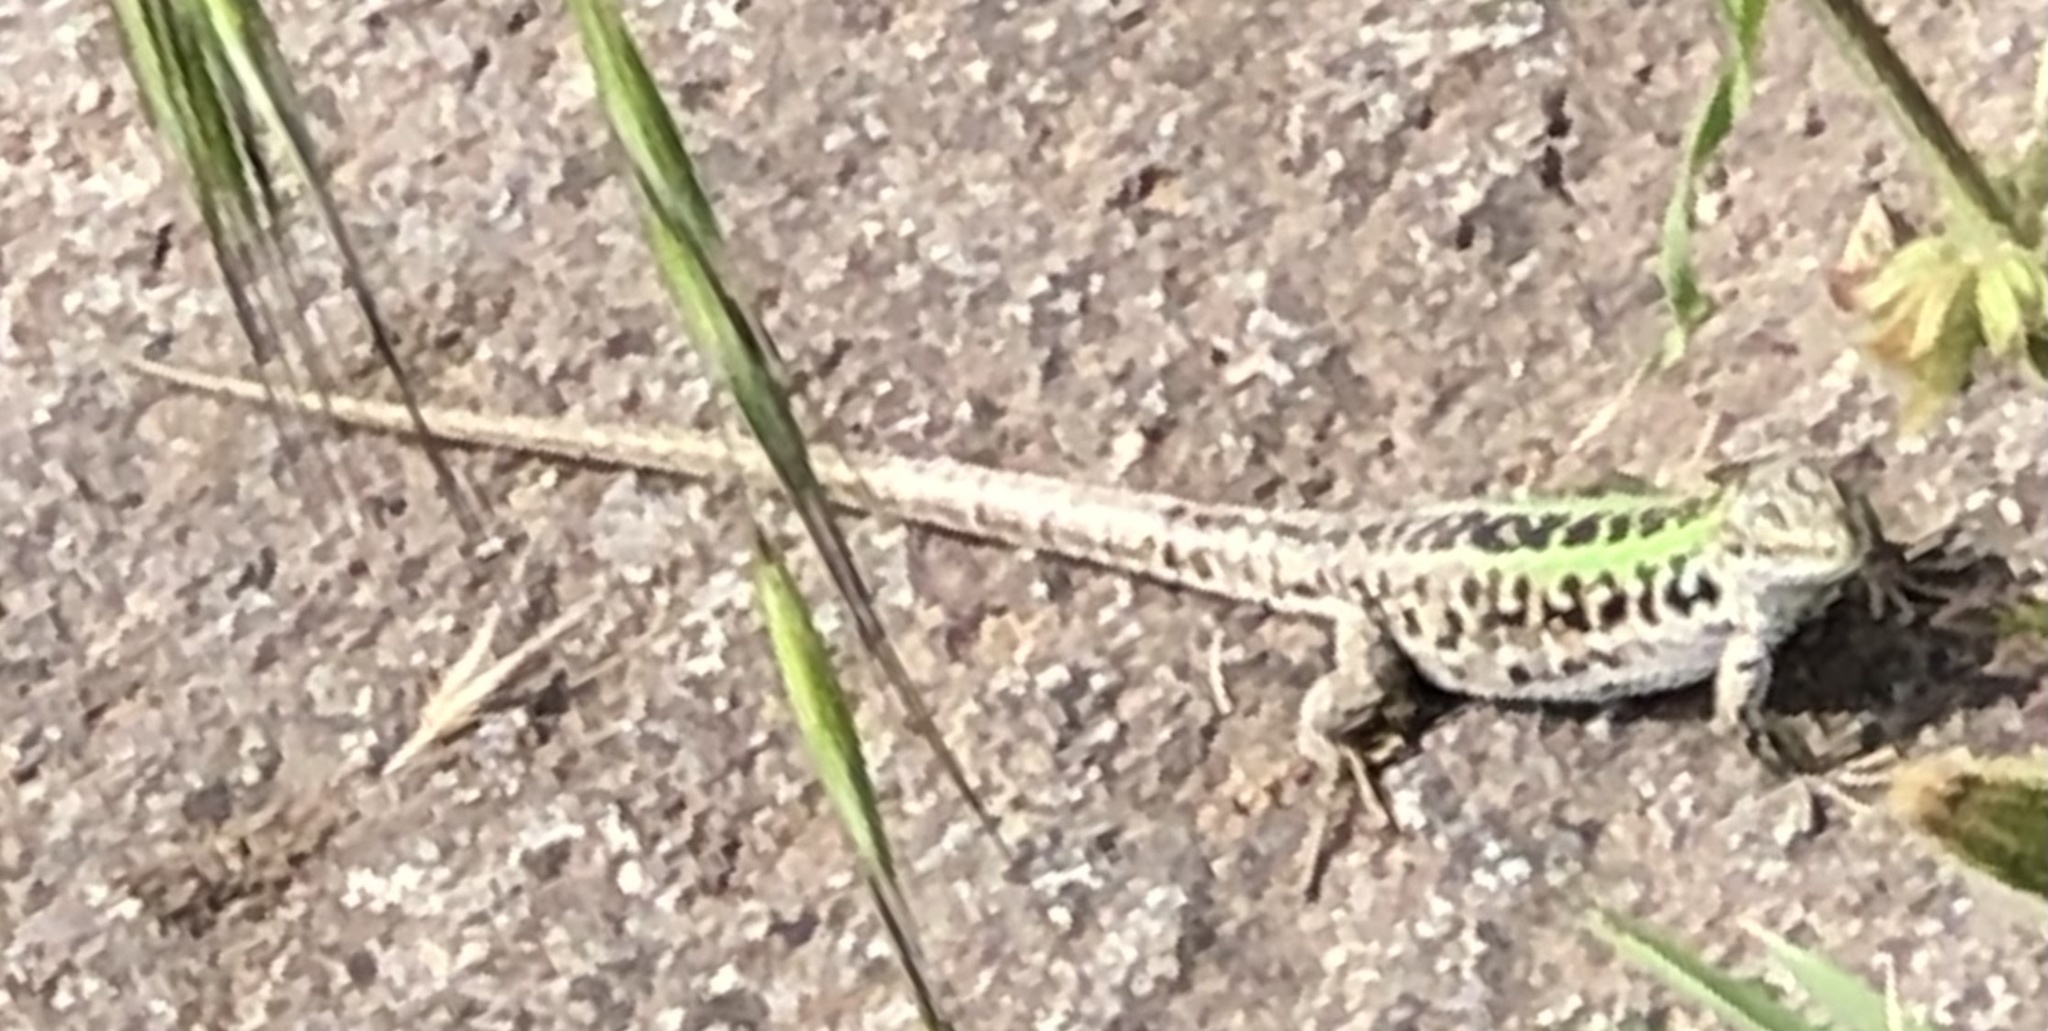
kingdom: Animalia
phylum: Chordata
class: Squamata
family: Lacertidae
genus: Podarcis
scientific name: Podarcis siculus
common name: Italian wall lizard
